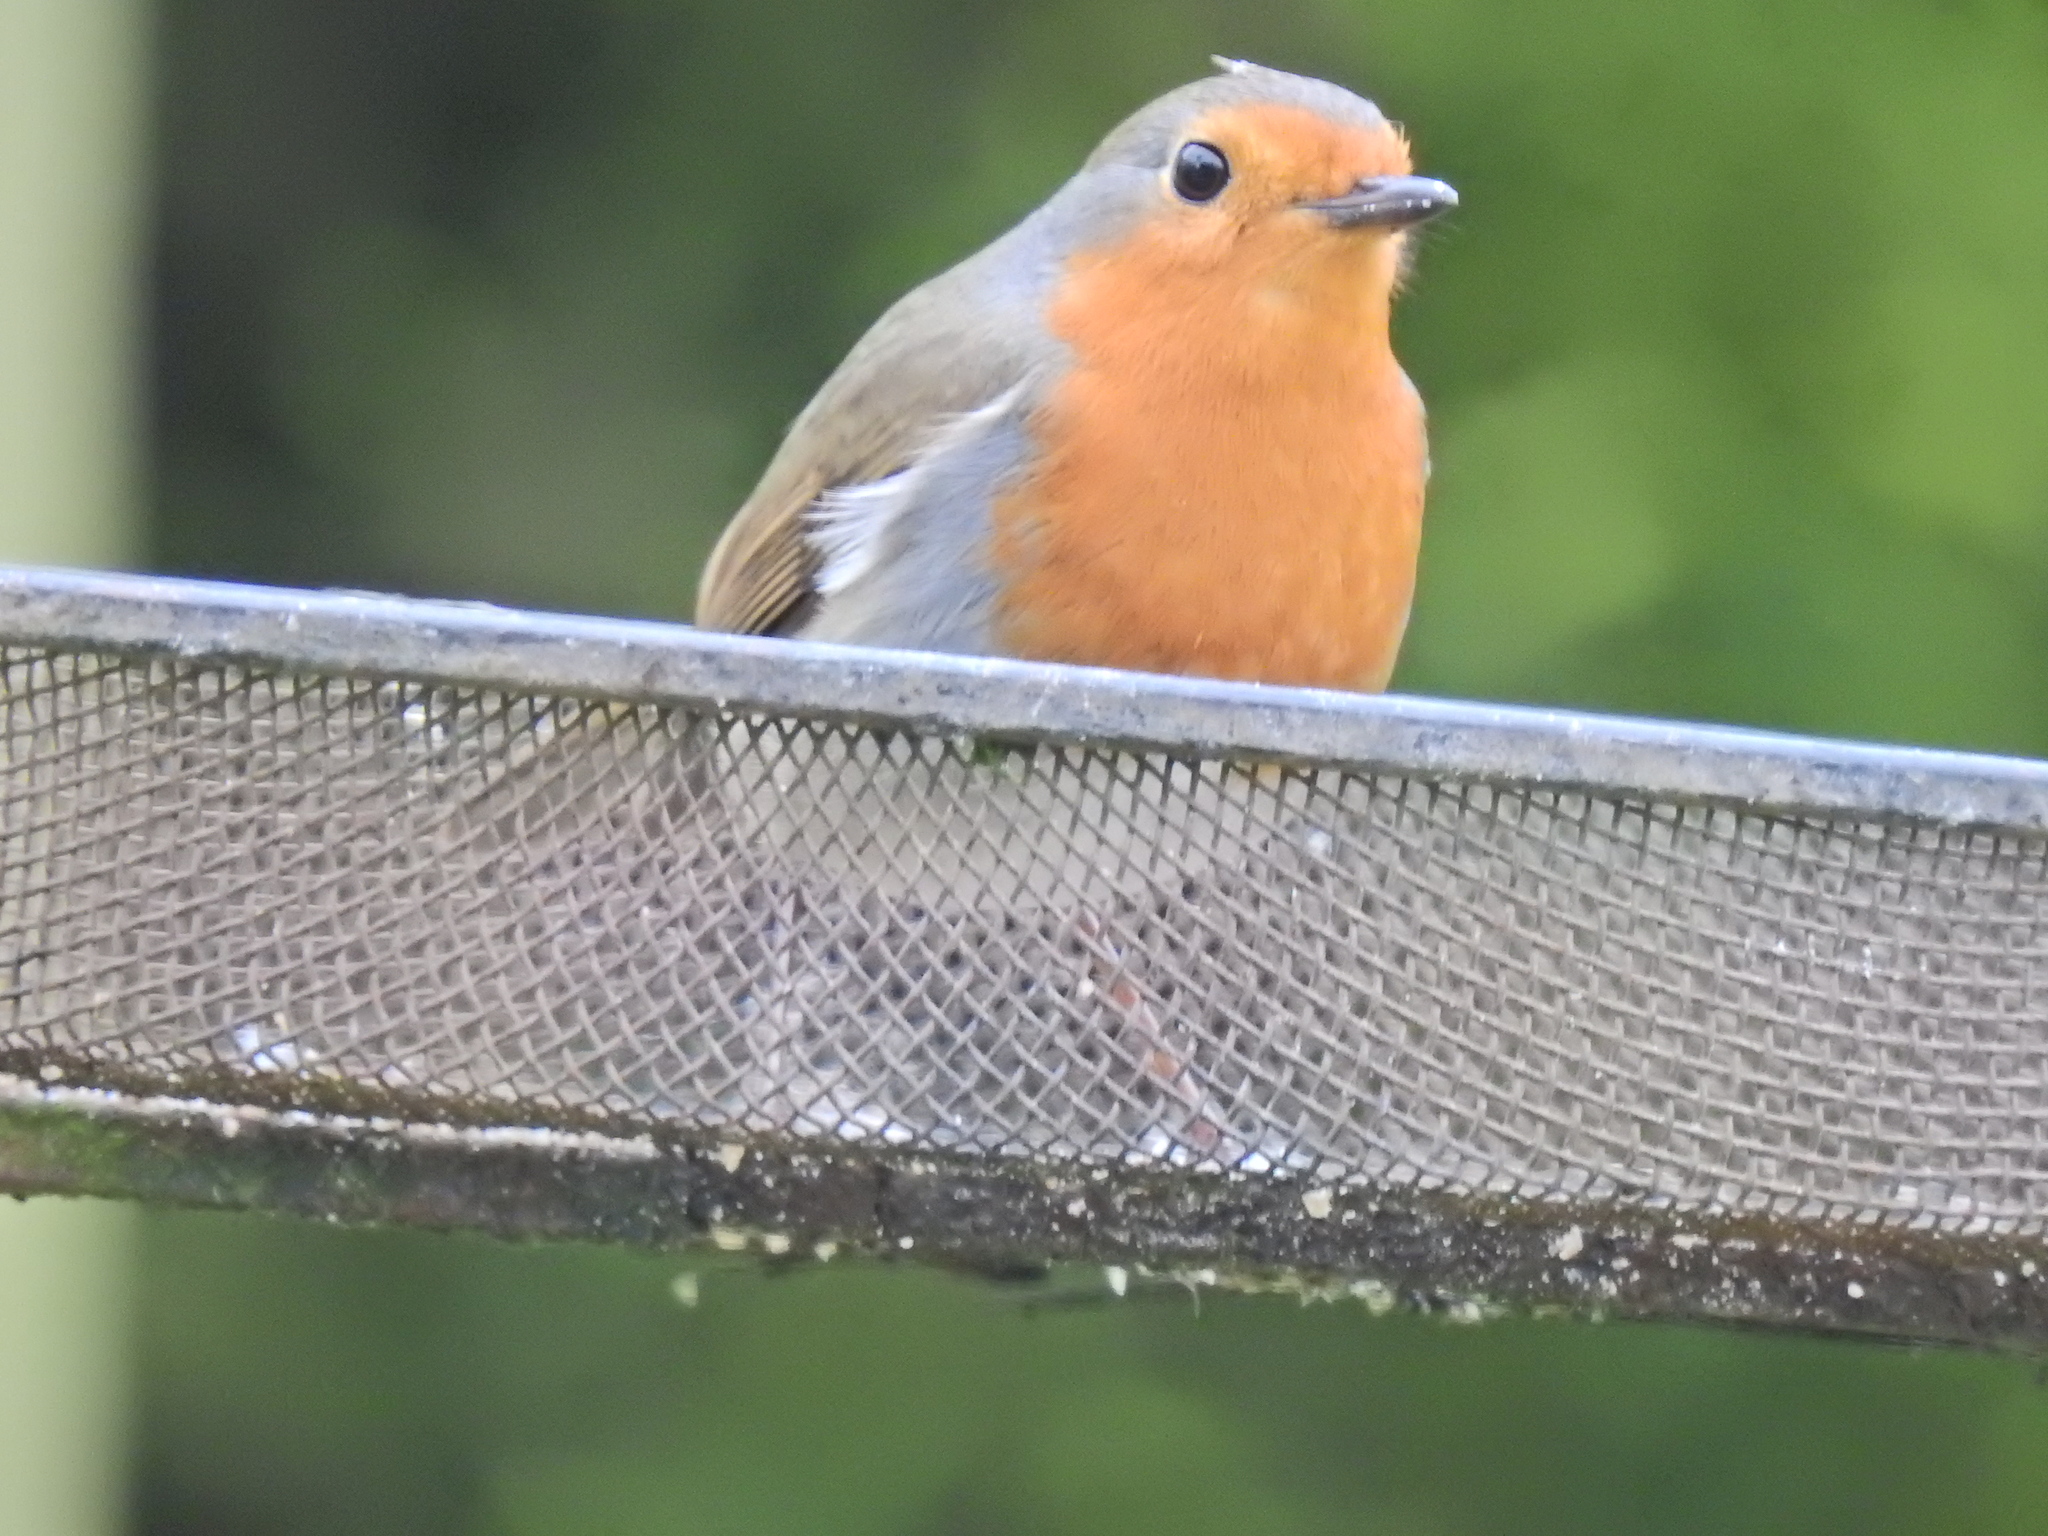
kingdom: Animalia
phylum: Chordata
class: Aves
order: Passeriformes
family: Muscicapidae
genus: Erithacus
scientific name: Erithacus rubecula
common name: European robin
